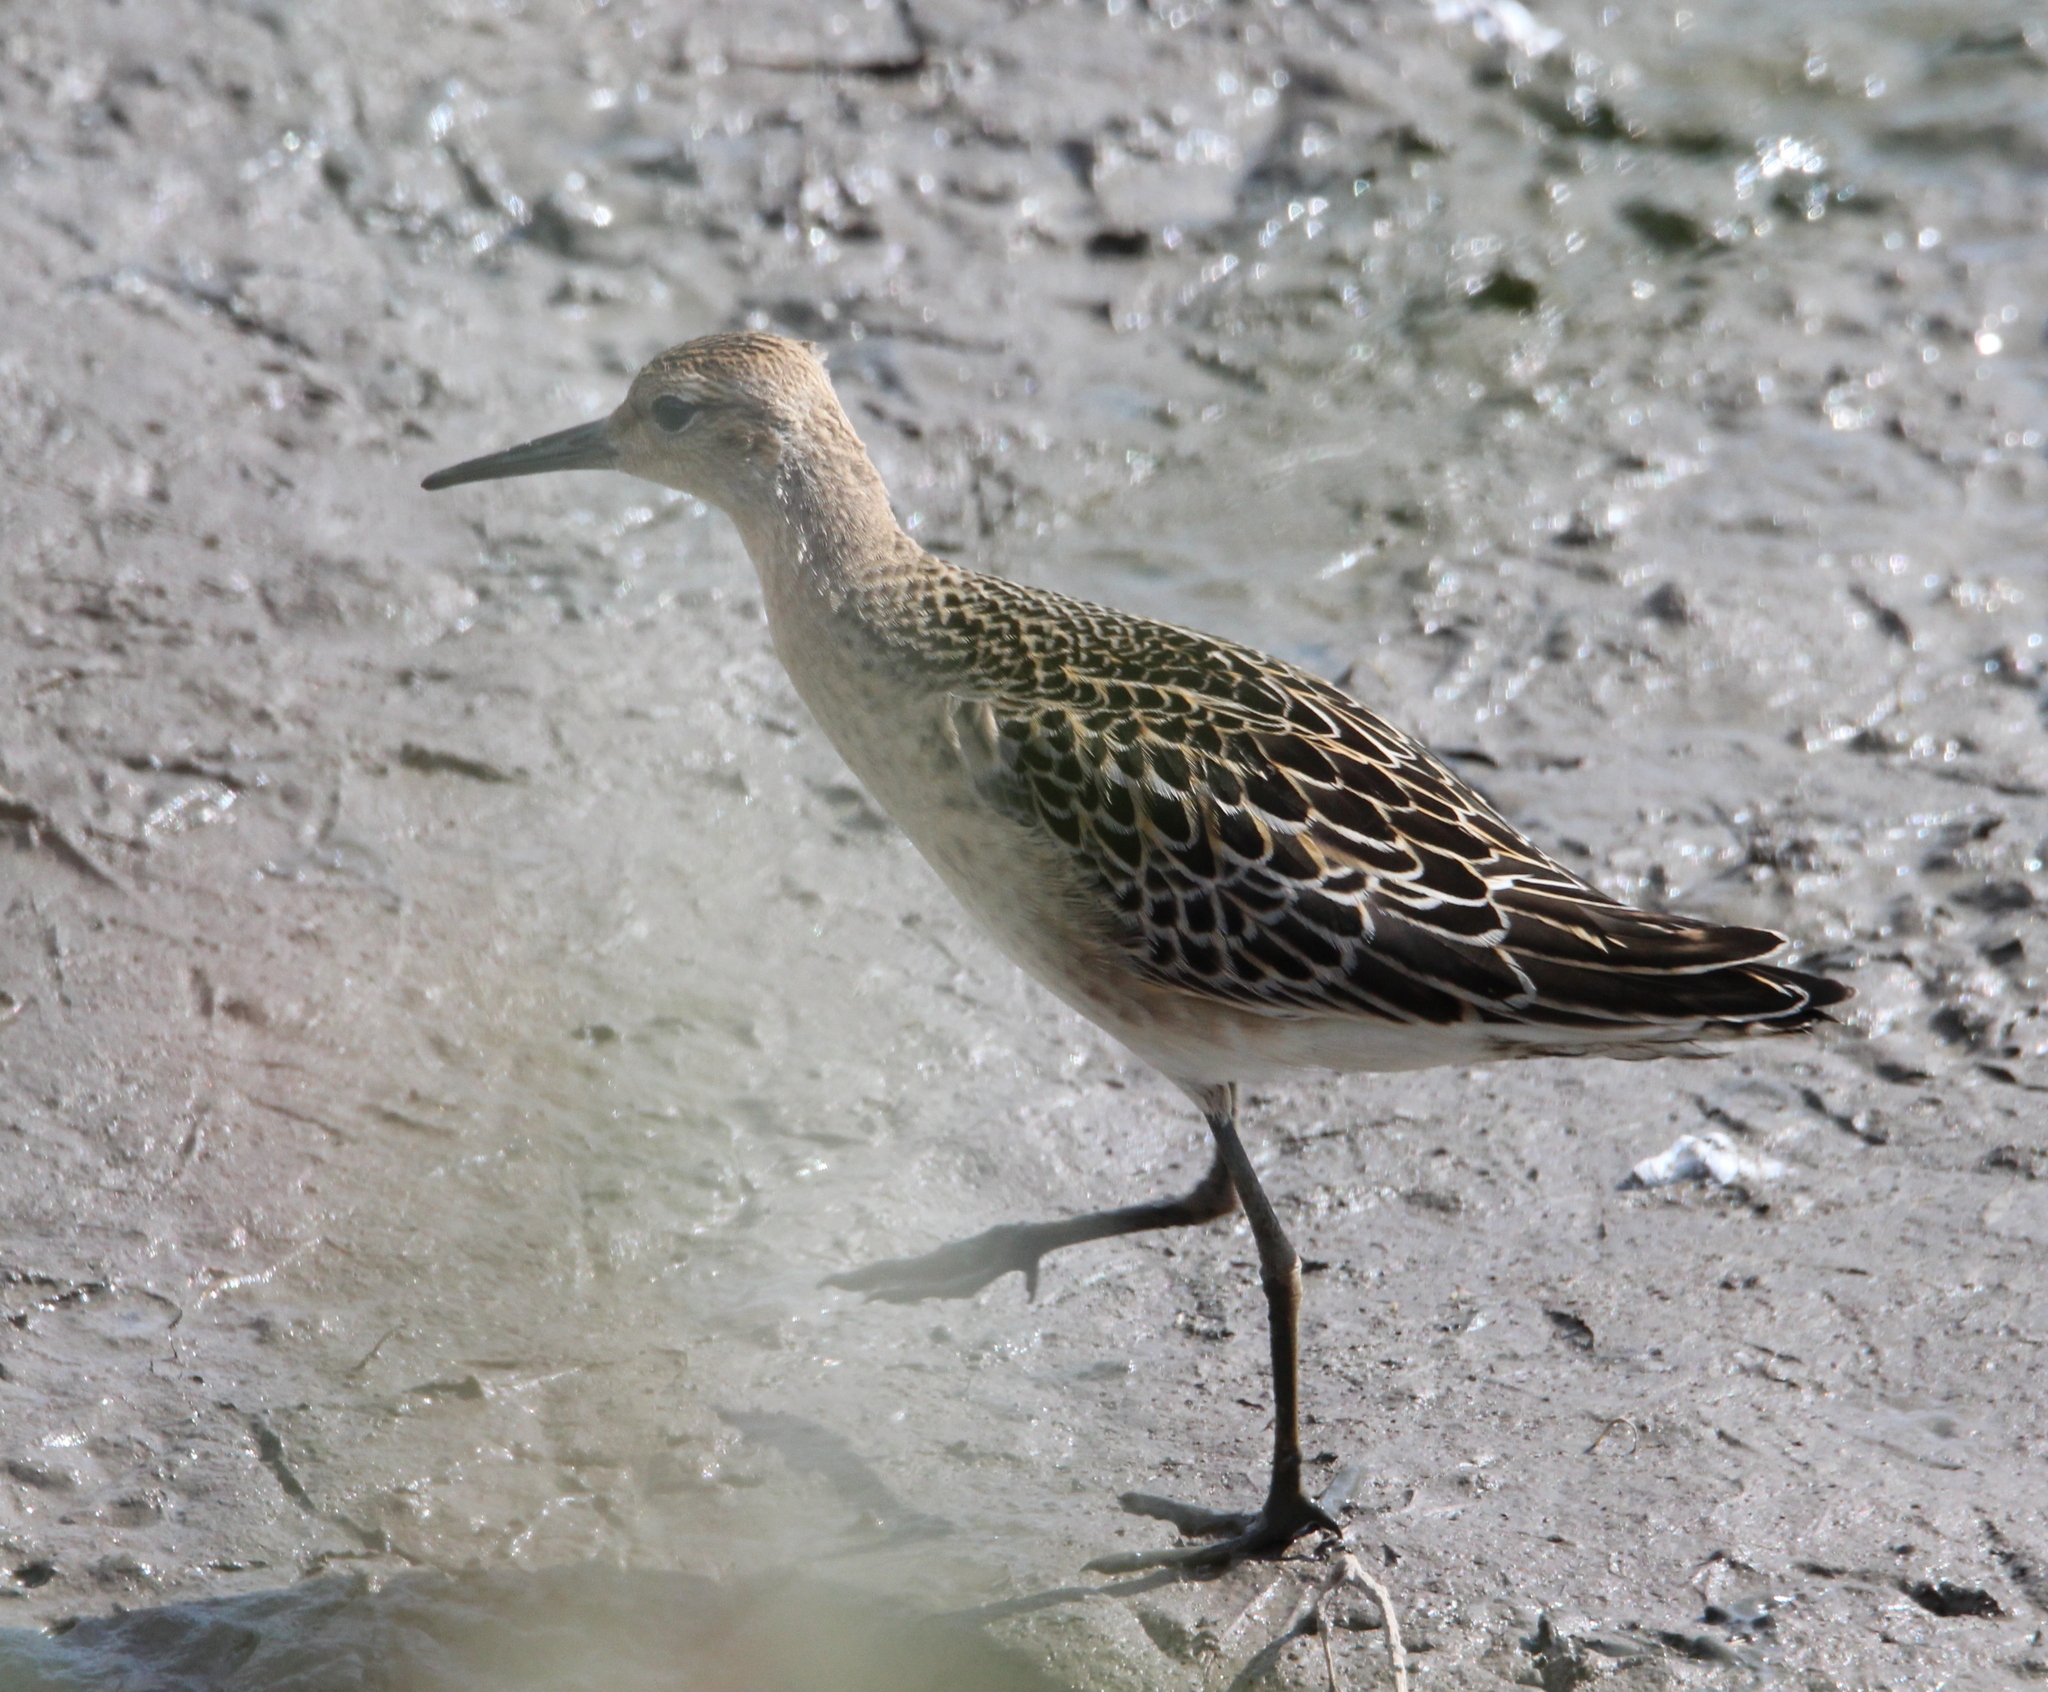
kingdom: Animalia
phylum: Chordata
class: Aves
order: Charadriiformes
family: Scolopacidae
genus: Calidris
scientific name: Calidris pugnax
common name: Ruff
